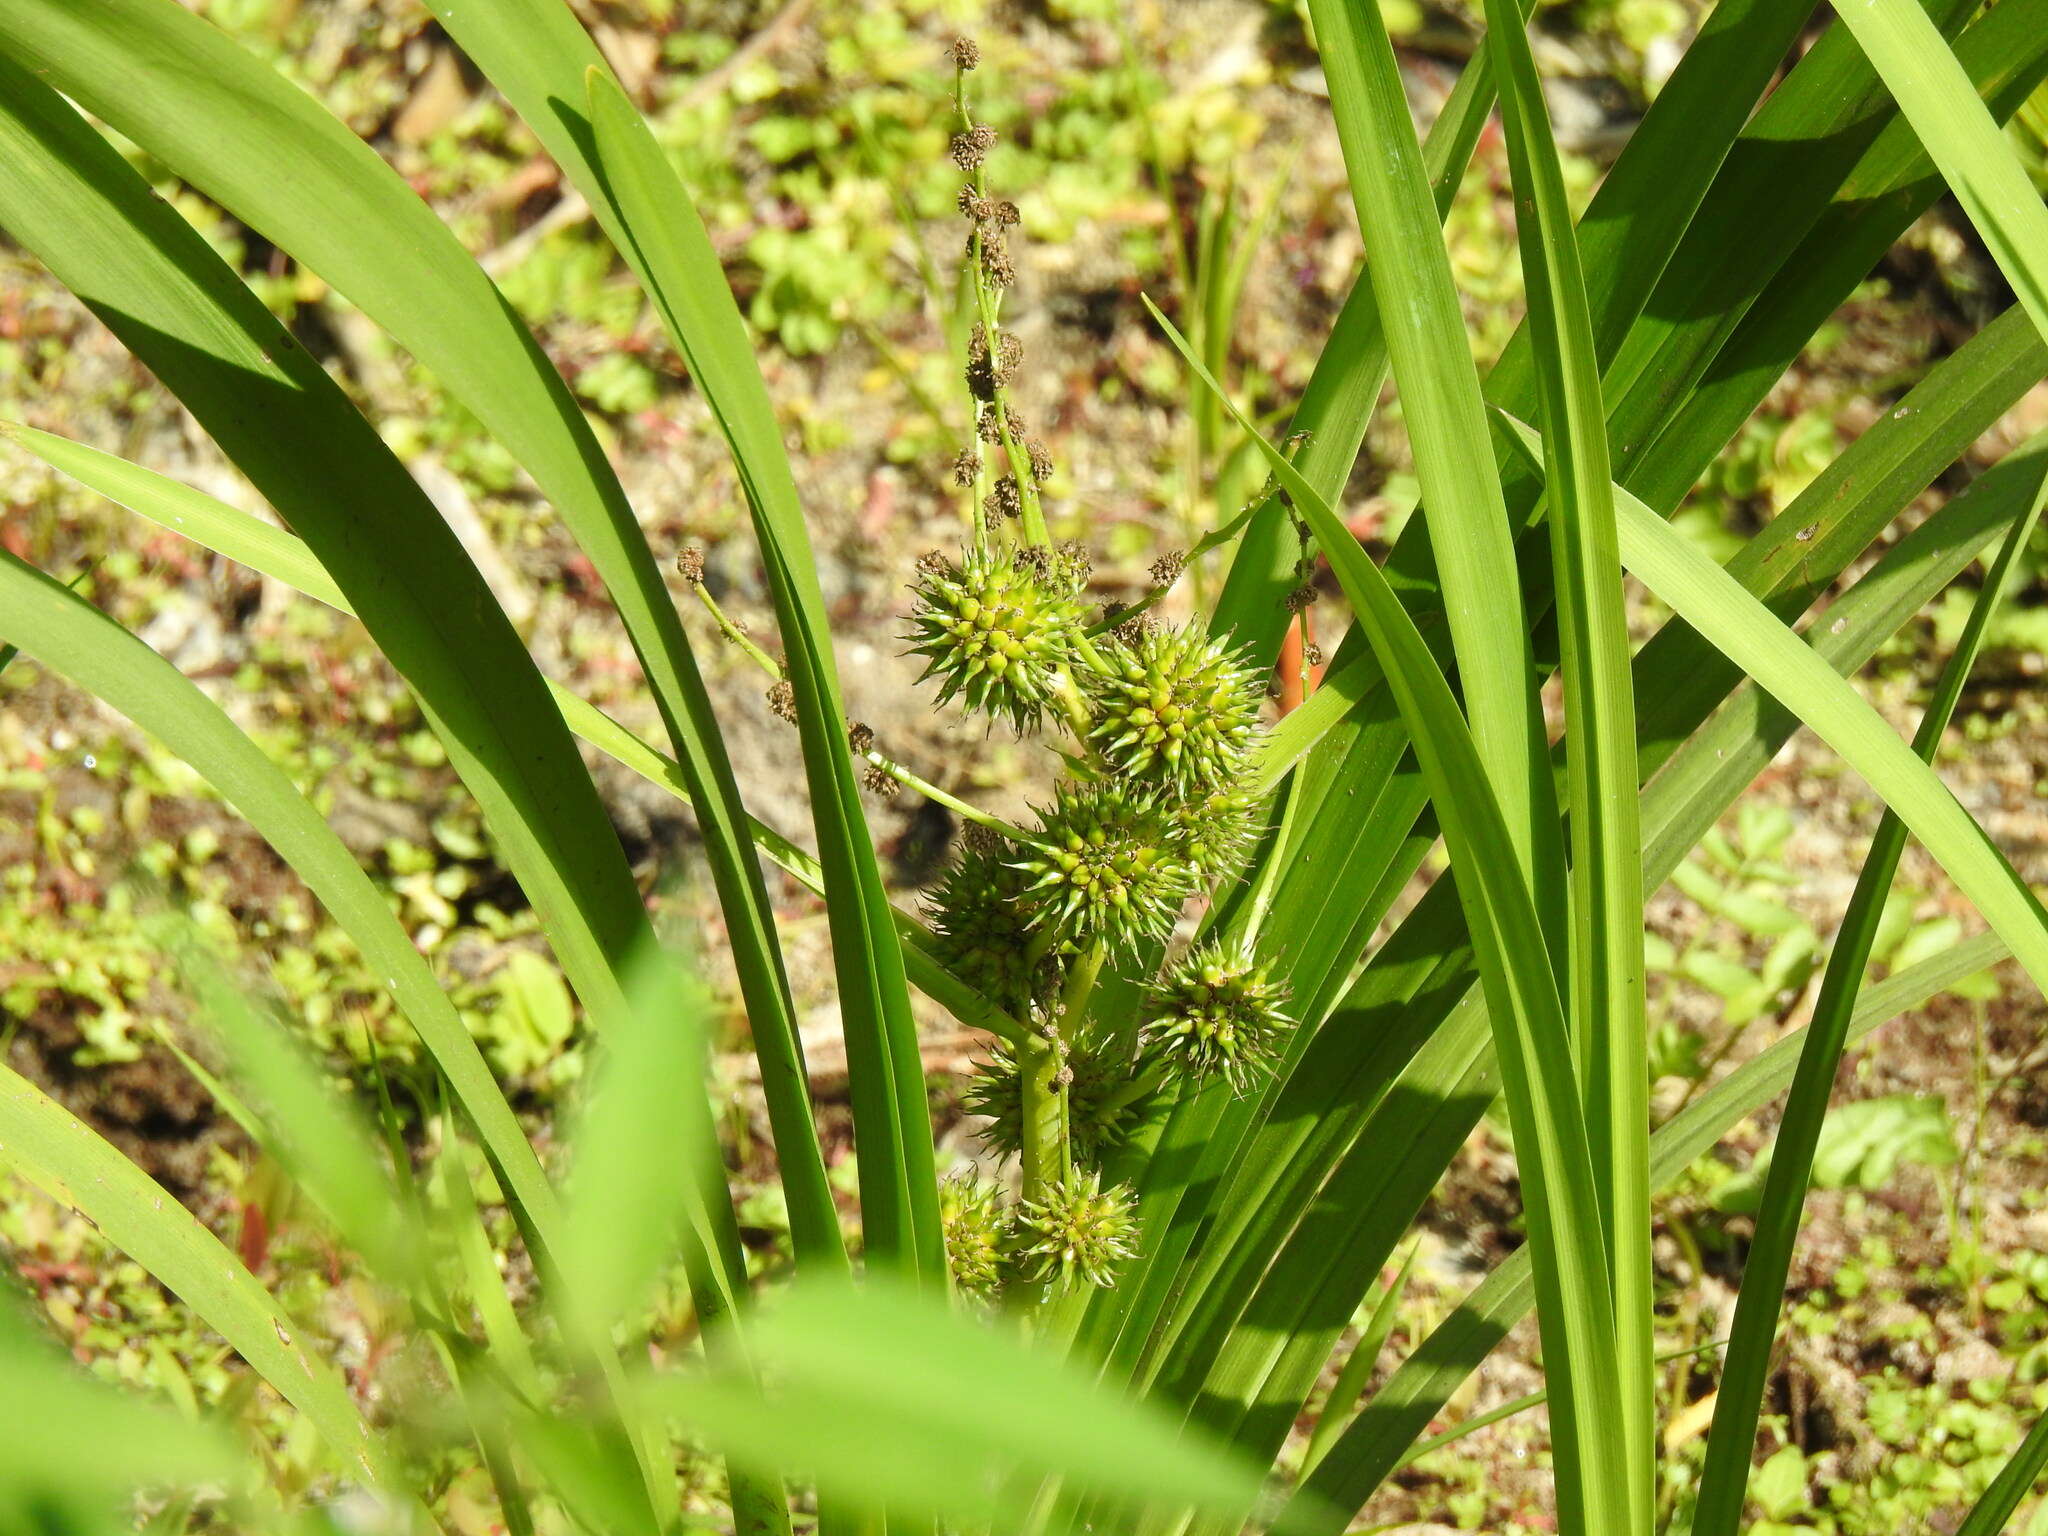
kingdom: Plantae
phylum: Tracheophyta
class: Liliopsida
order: Poales
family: Typhaceae
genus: Sparganium
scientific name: Sparganium erectum
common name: Branched bur-reed
